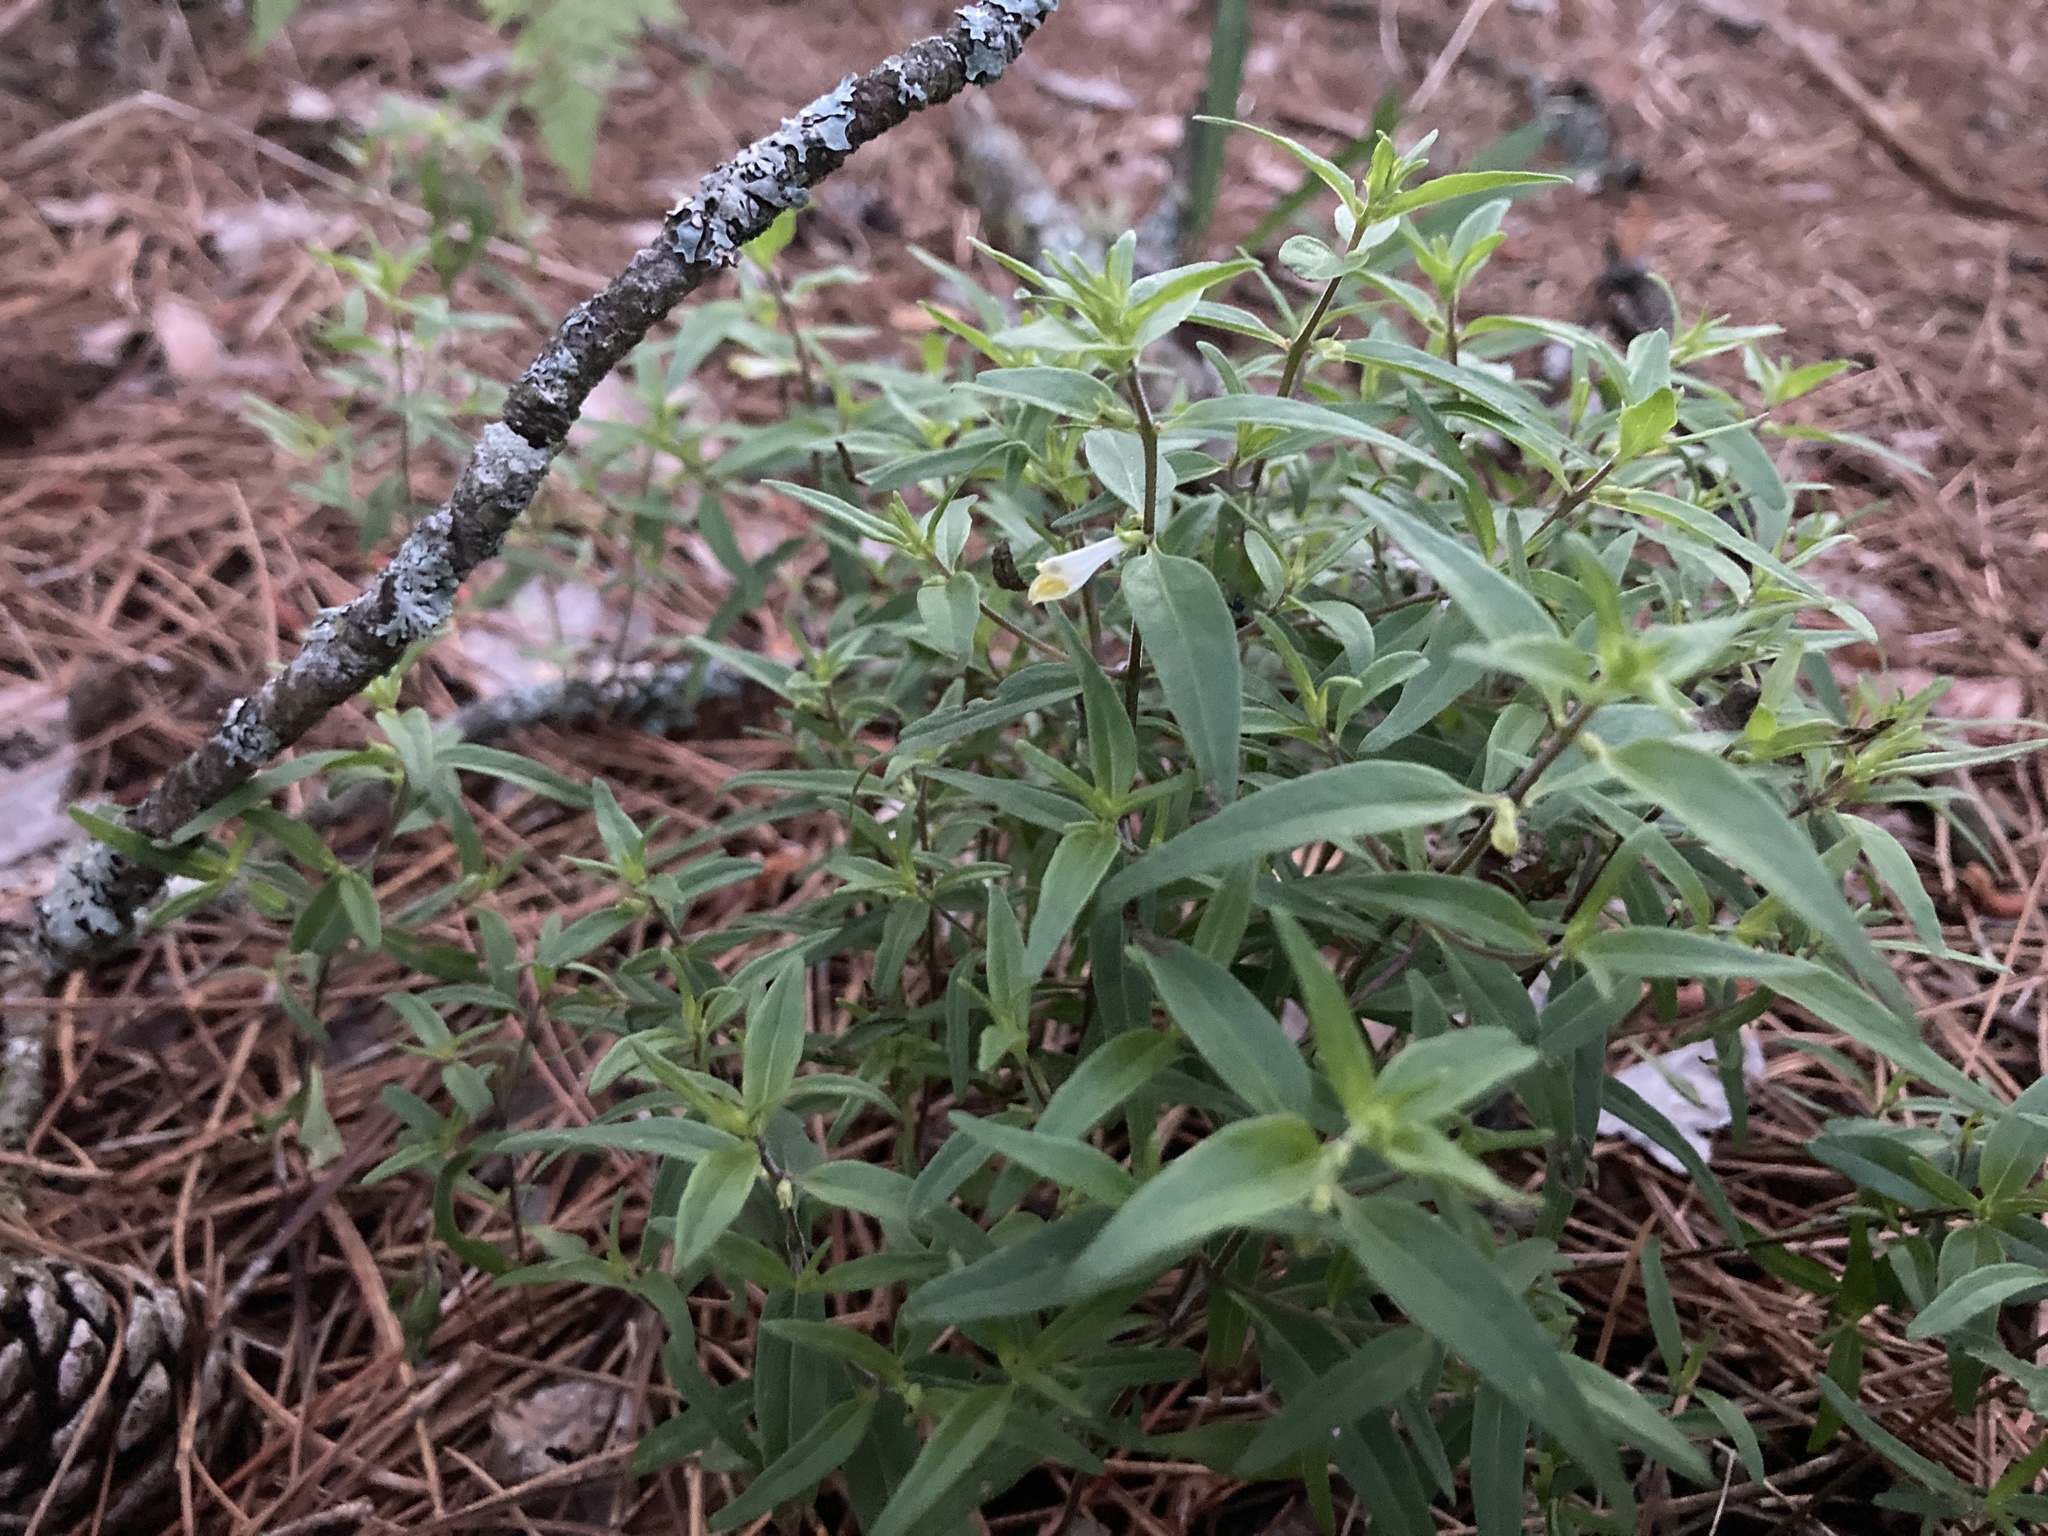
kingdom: Plantae
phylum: Tracheophyta
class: Magnoliopsida
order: Lamiales
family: Orobanchaceae
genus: Melampyrum
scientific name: Melampyrum lineare
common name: American cow-wheat
